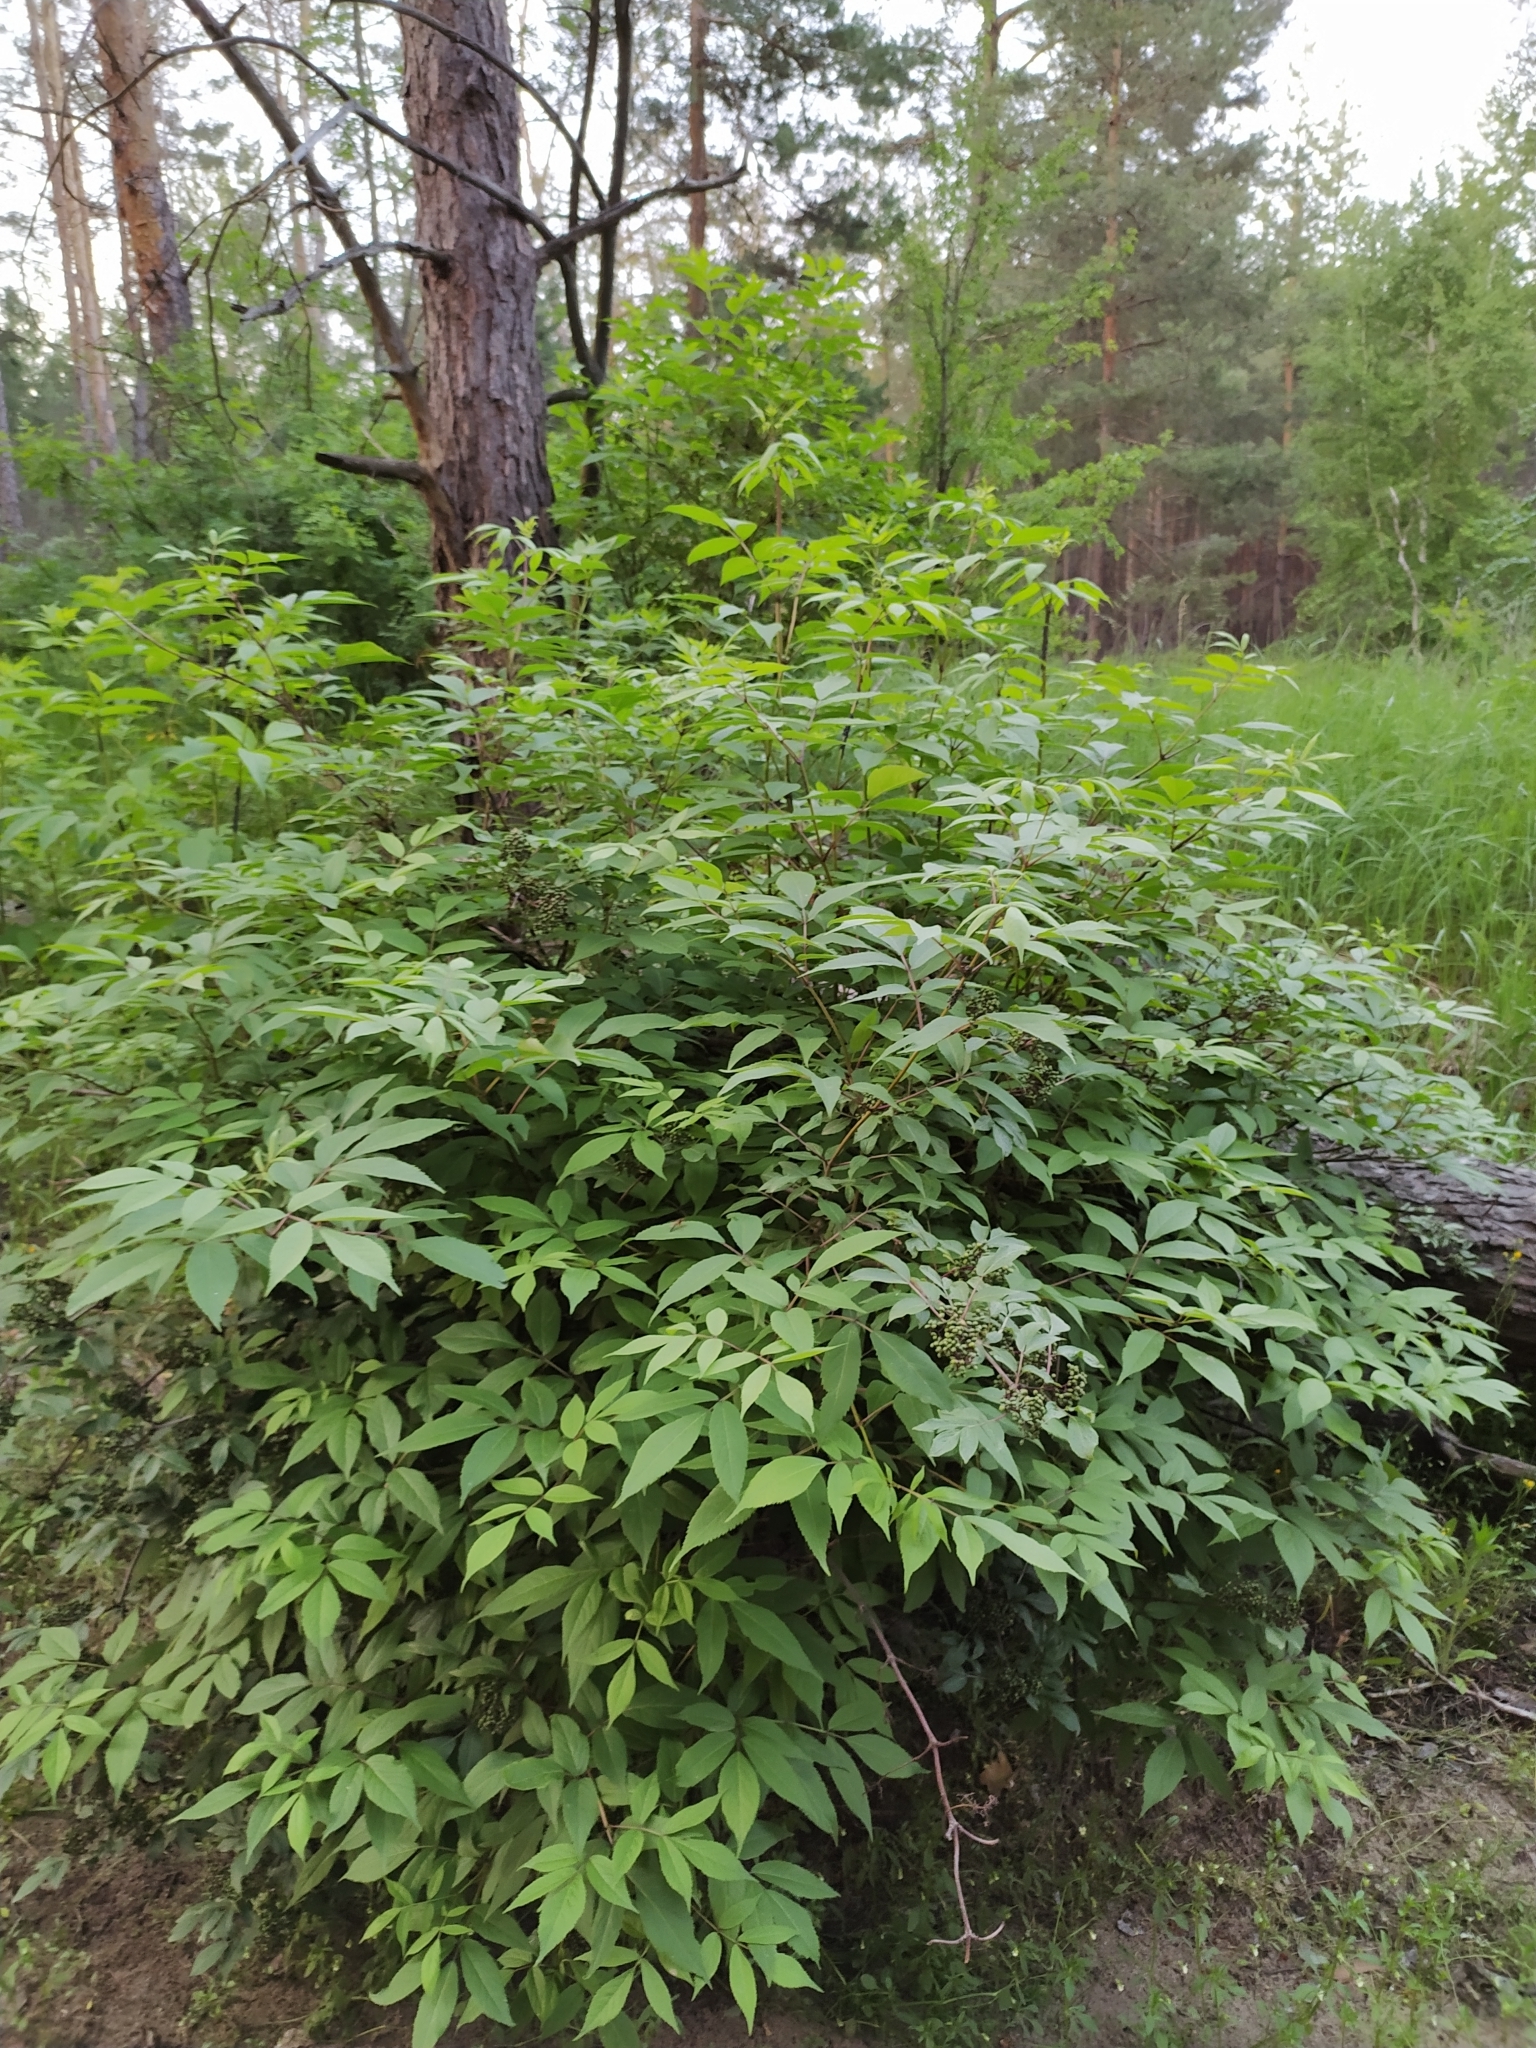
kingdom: Plantae
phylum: Tracheophyta
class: Magnoliopsida
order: Dipsacales
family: Viburnaceae
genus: Sambucus
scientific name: Sambucus racemosa
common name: Red-berried elder
